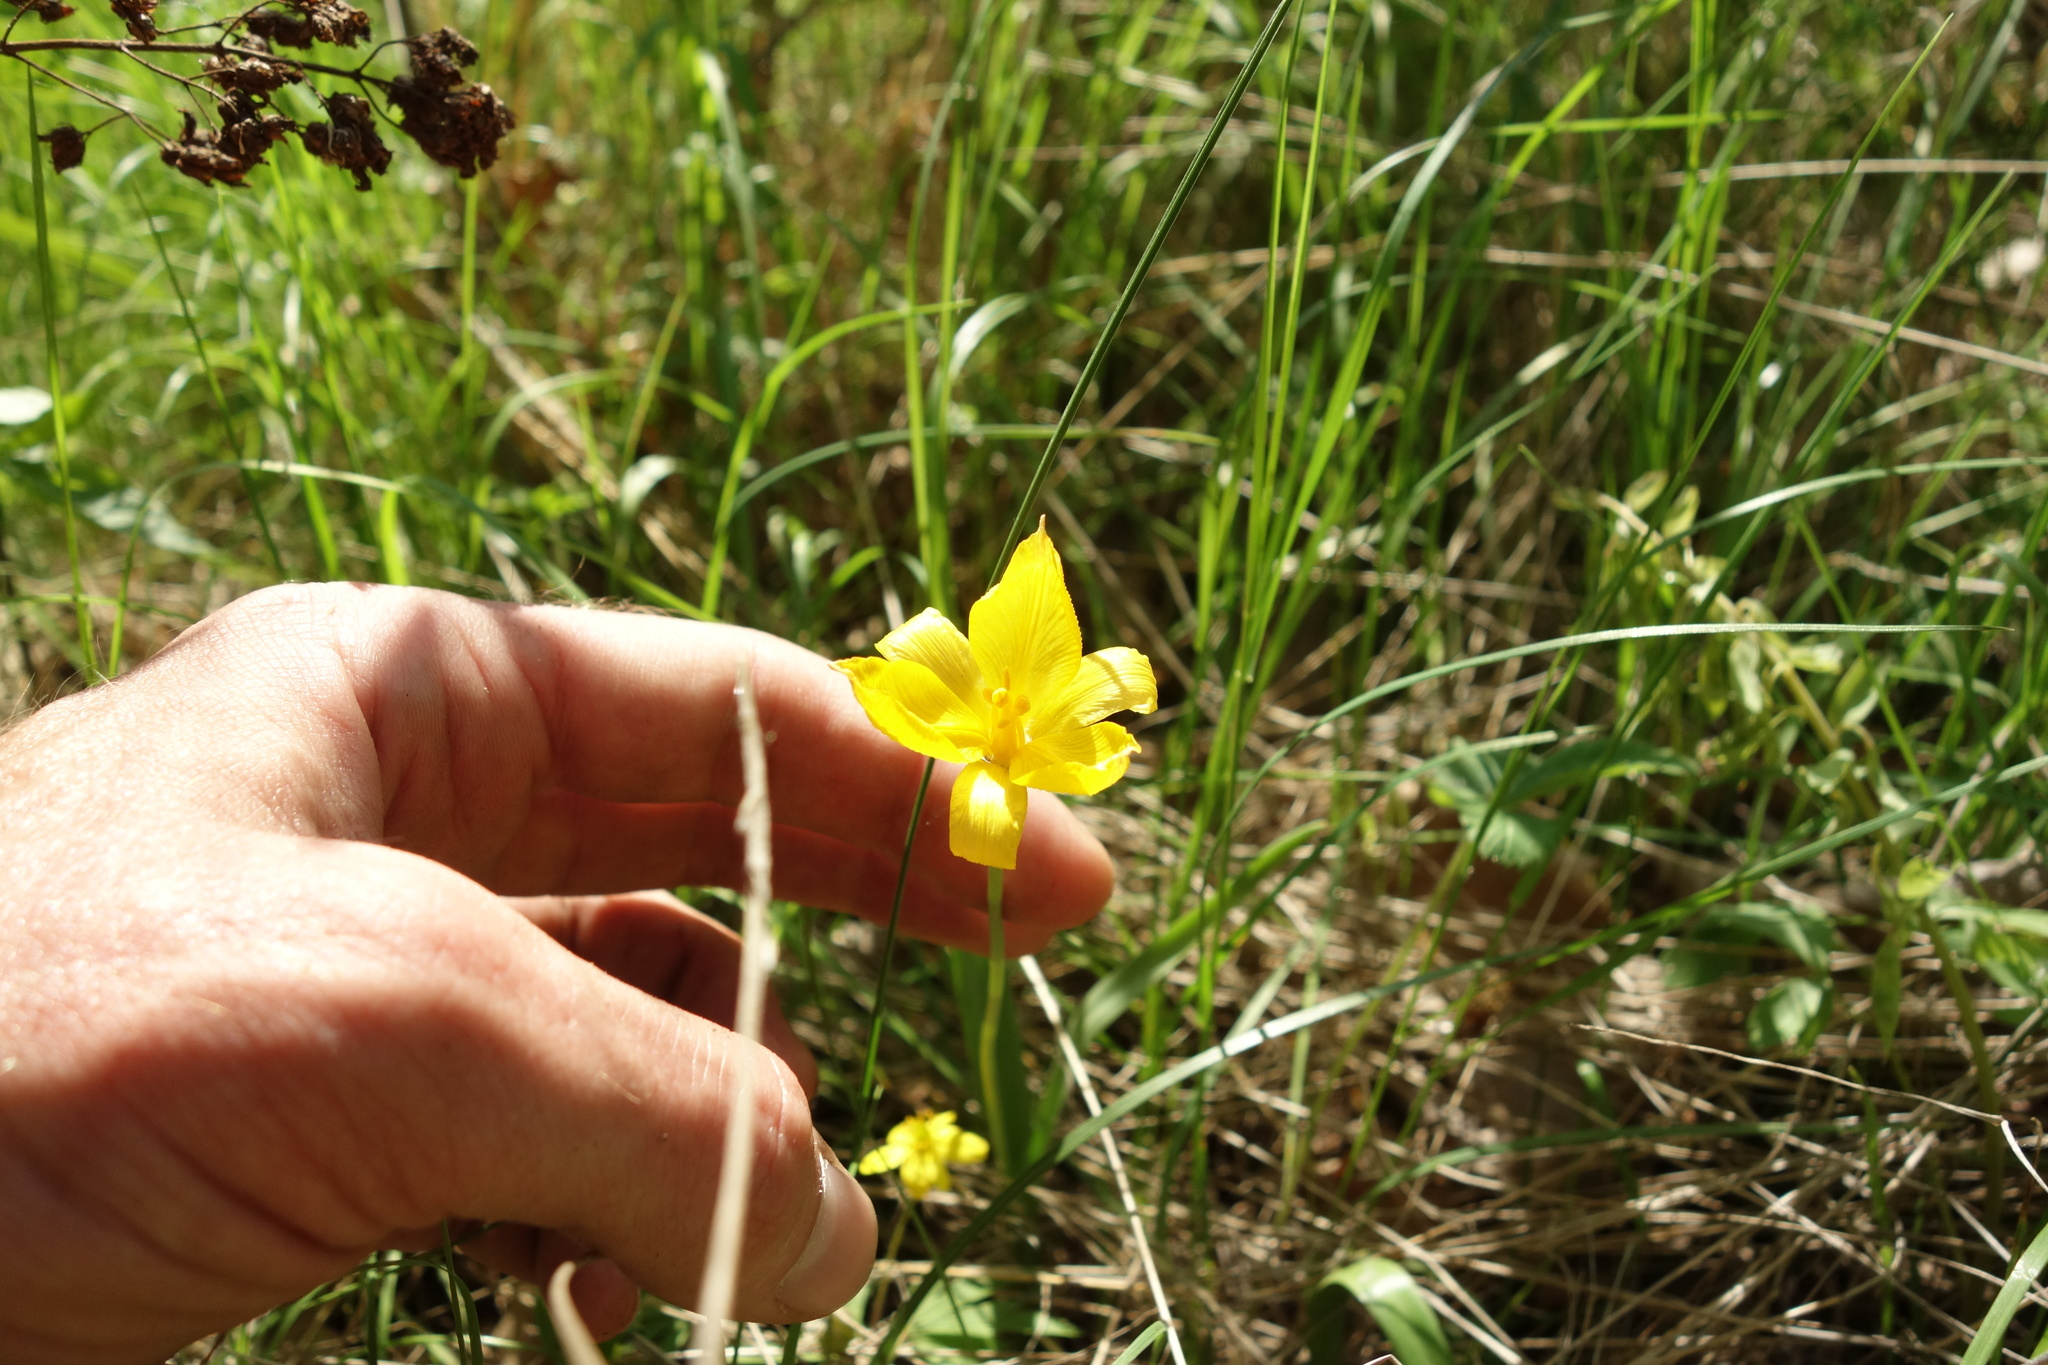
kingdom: Plantae
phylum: Tracheophyta
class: Liliopsida
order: Liliales
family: Liliaceae
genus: Tulipa
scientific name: Tulipa sylvestris
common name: Wild tulip
